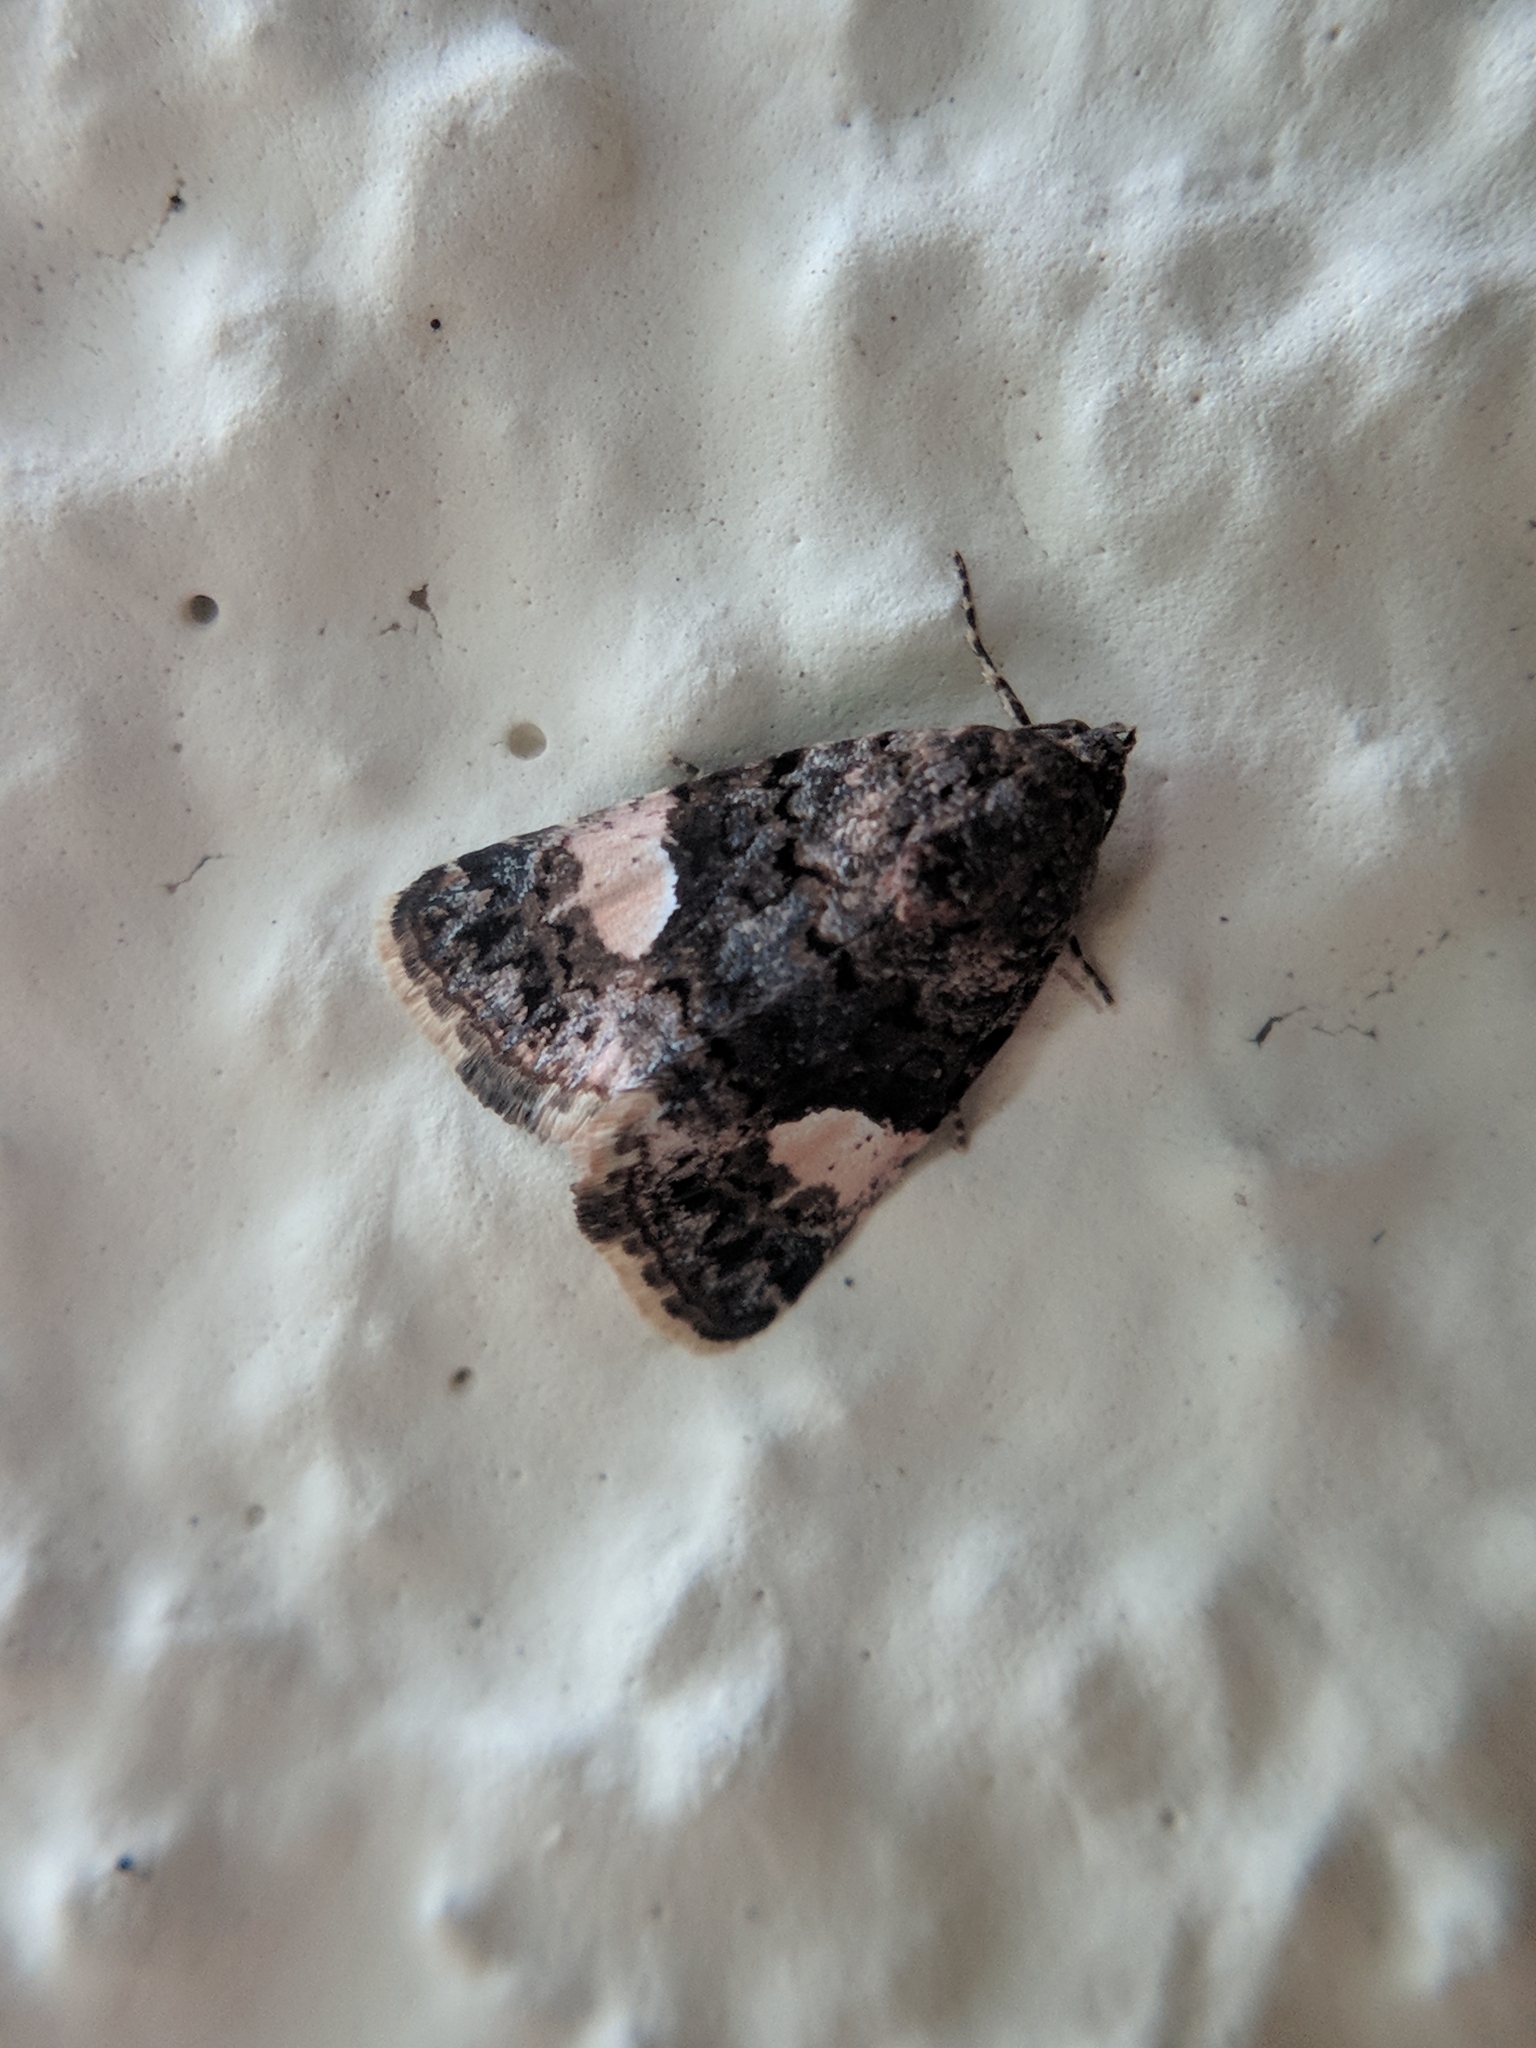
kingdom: Animalia
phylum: Arthropoda
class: Insecta
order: Lepidoptera
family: Erebidae
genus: Tyta
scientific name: Tyta luctuosa
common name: Four-spotted
